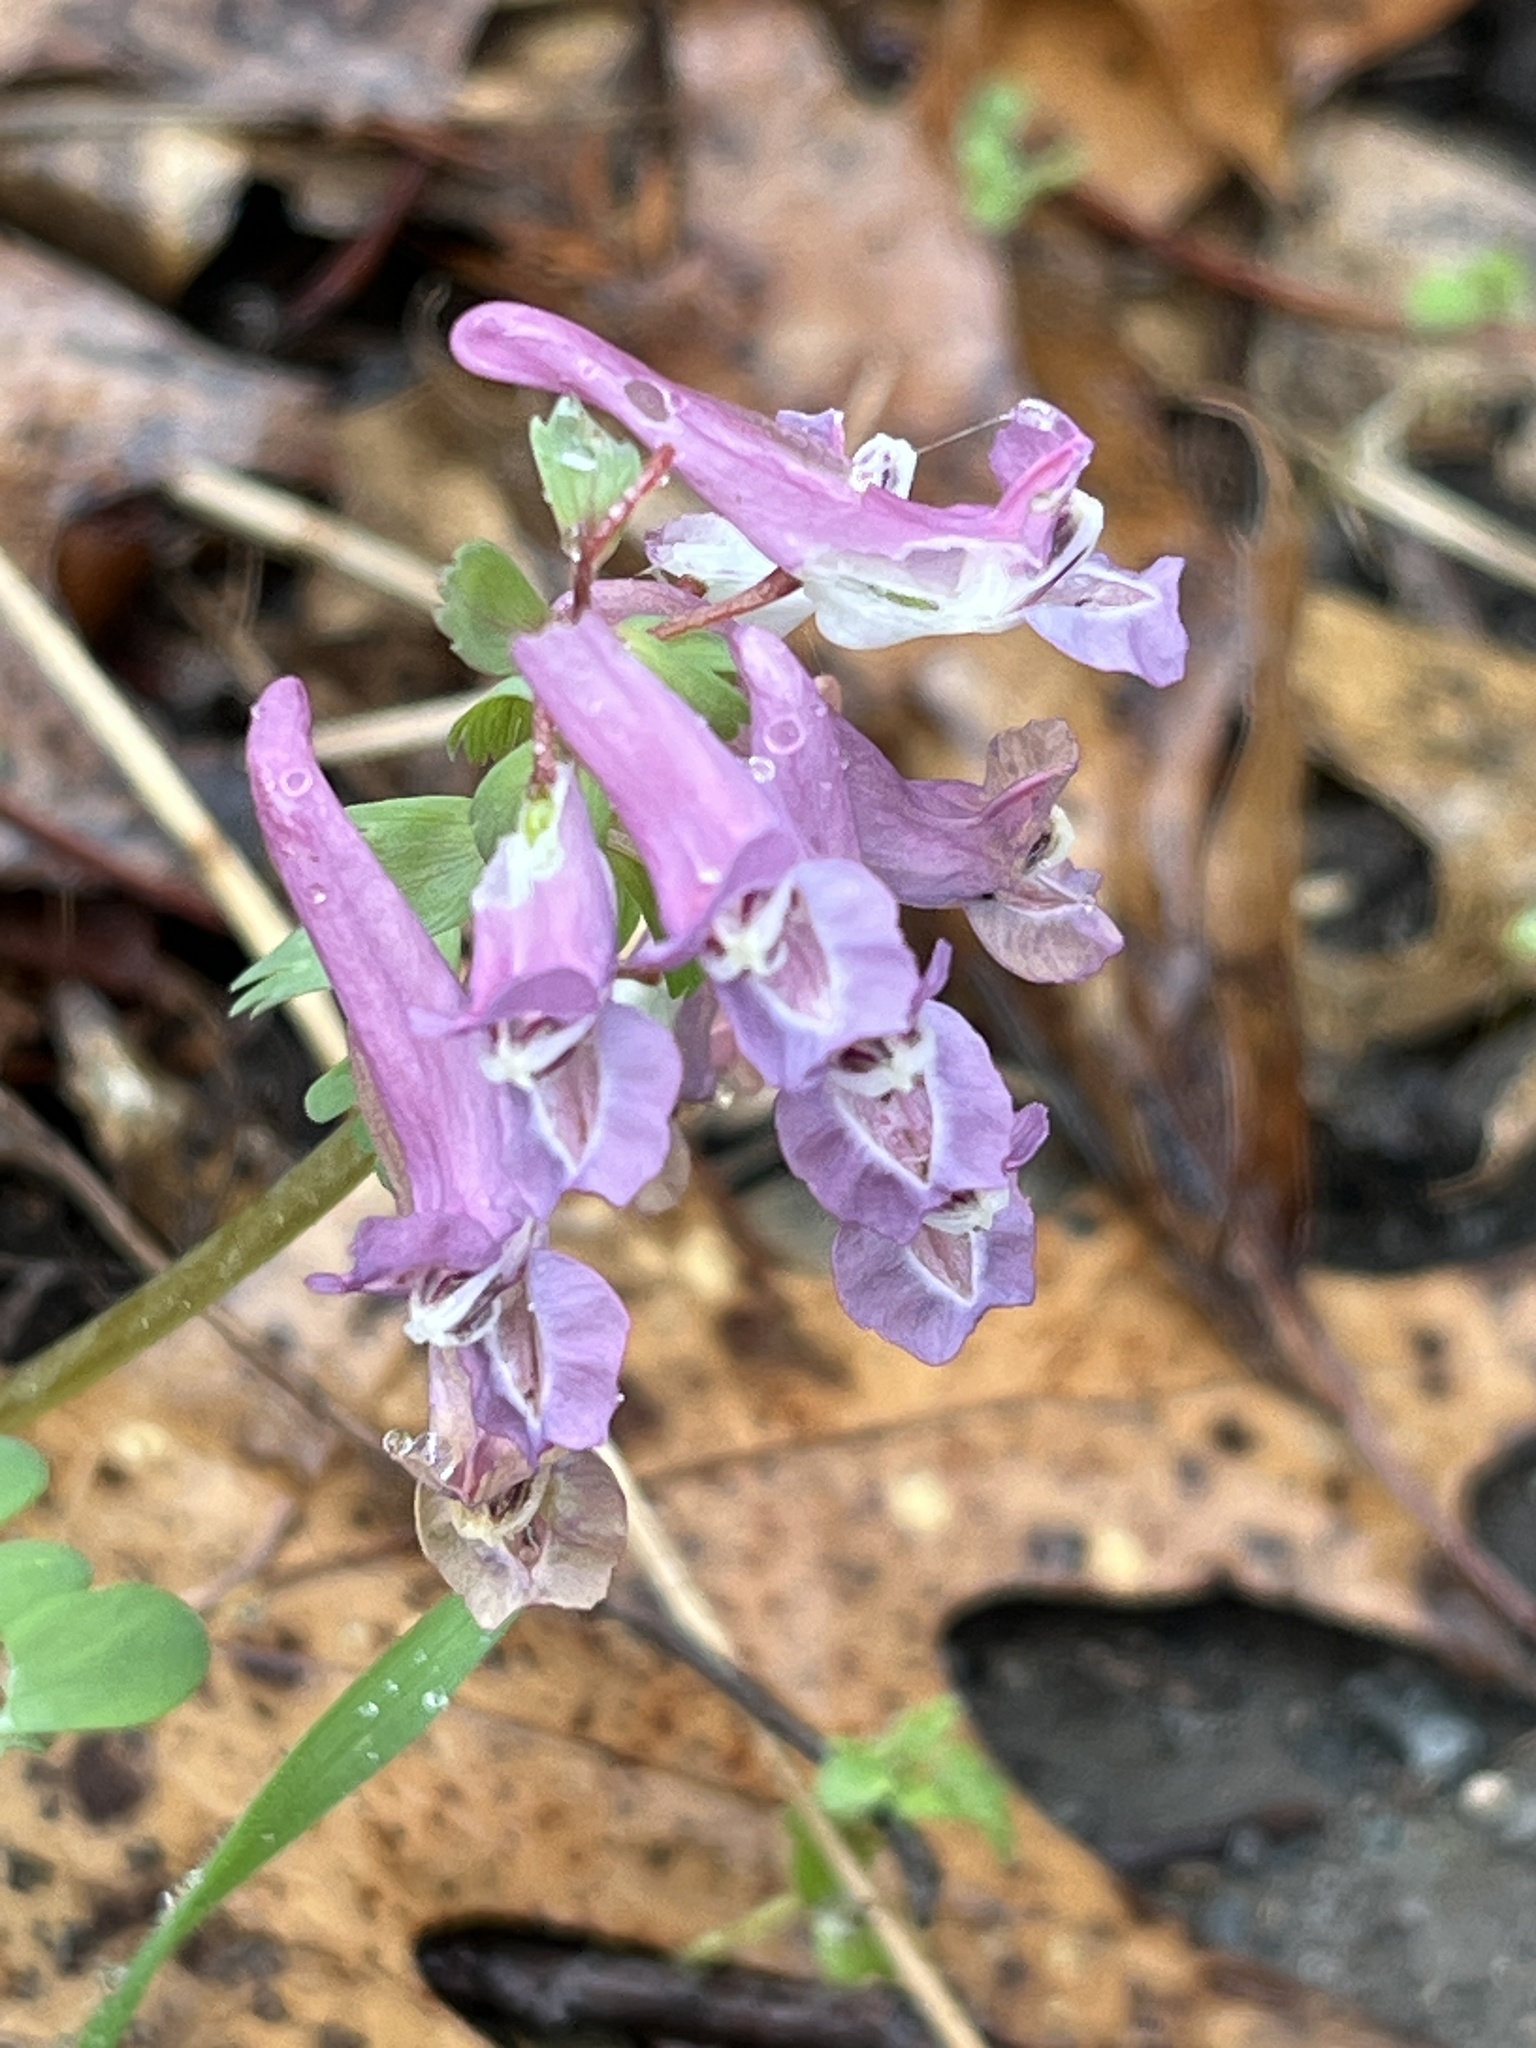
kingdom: Plantae
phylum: Tracheophyta
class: Magnoliopsida
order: Ranunculales
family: Papaveraceae
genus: Corydalis
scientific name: Corydalis solida
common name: Bird-in-a-bush
